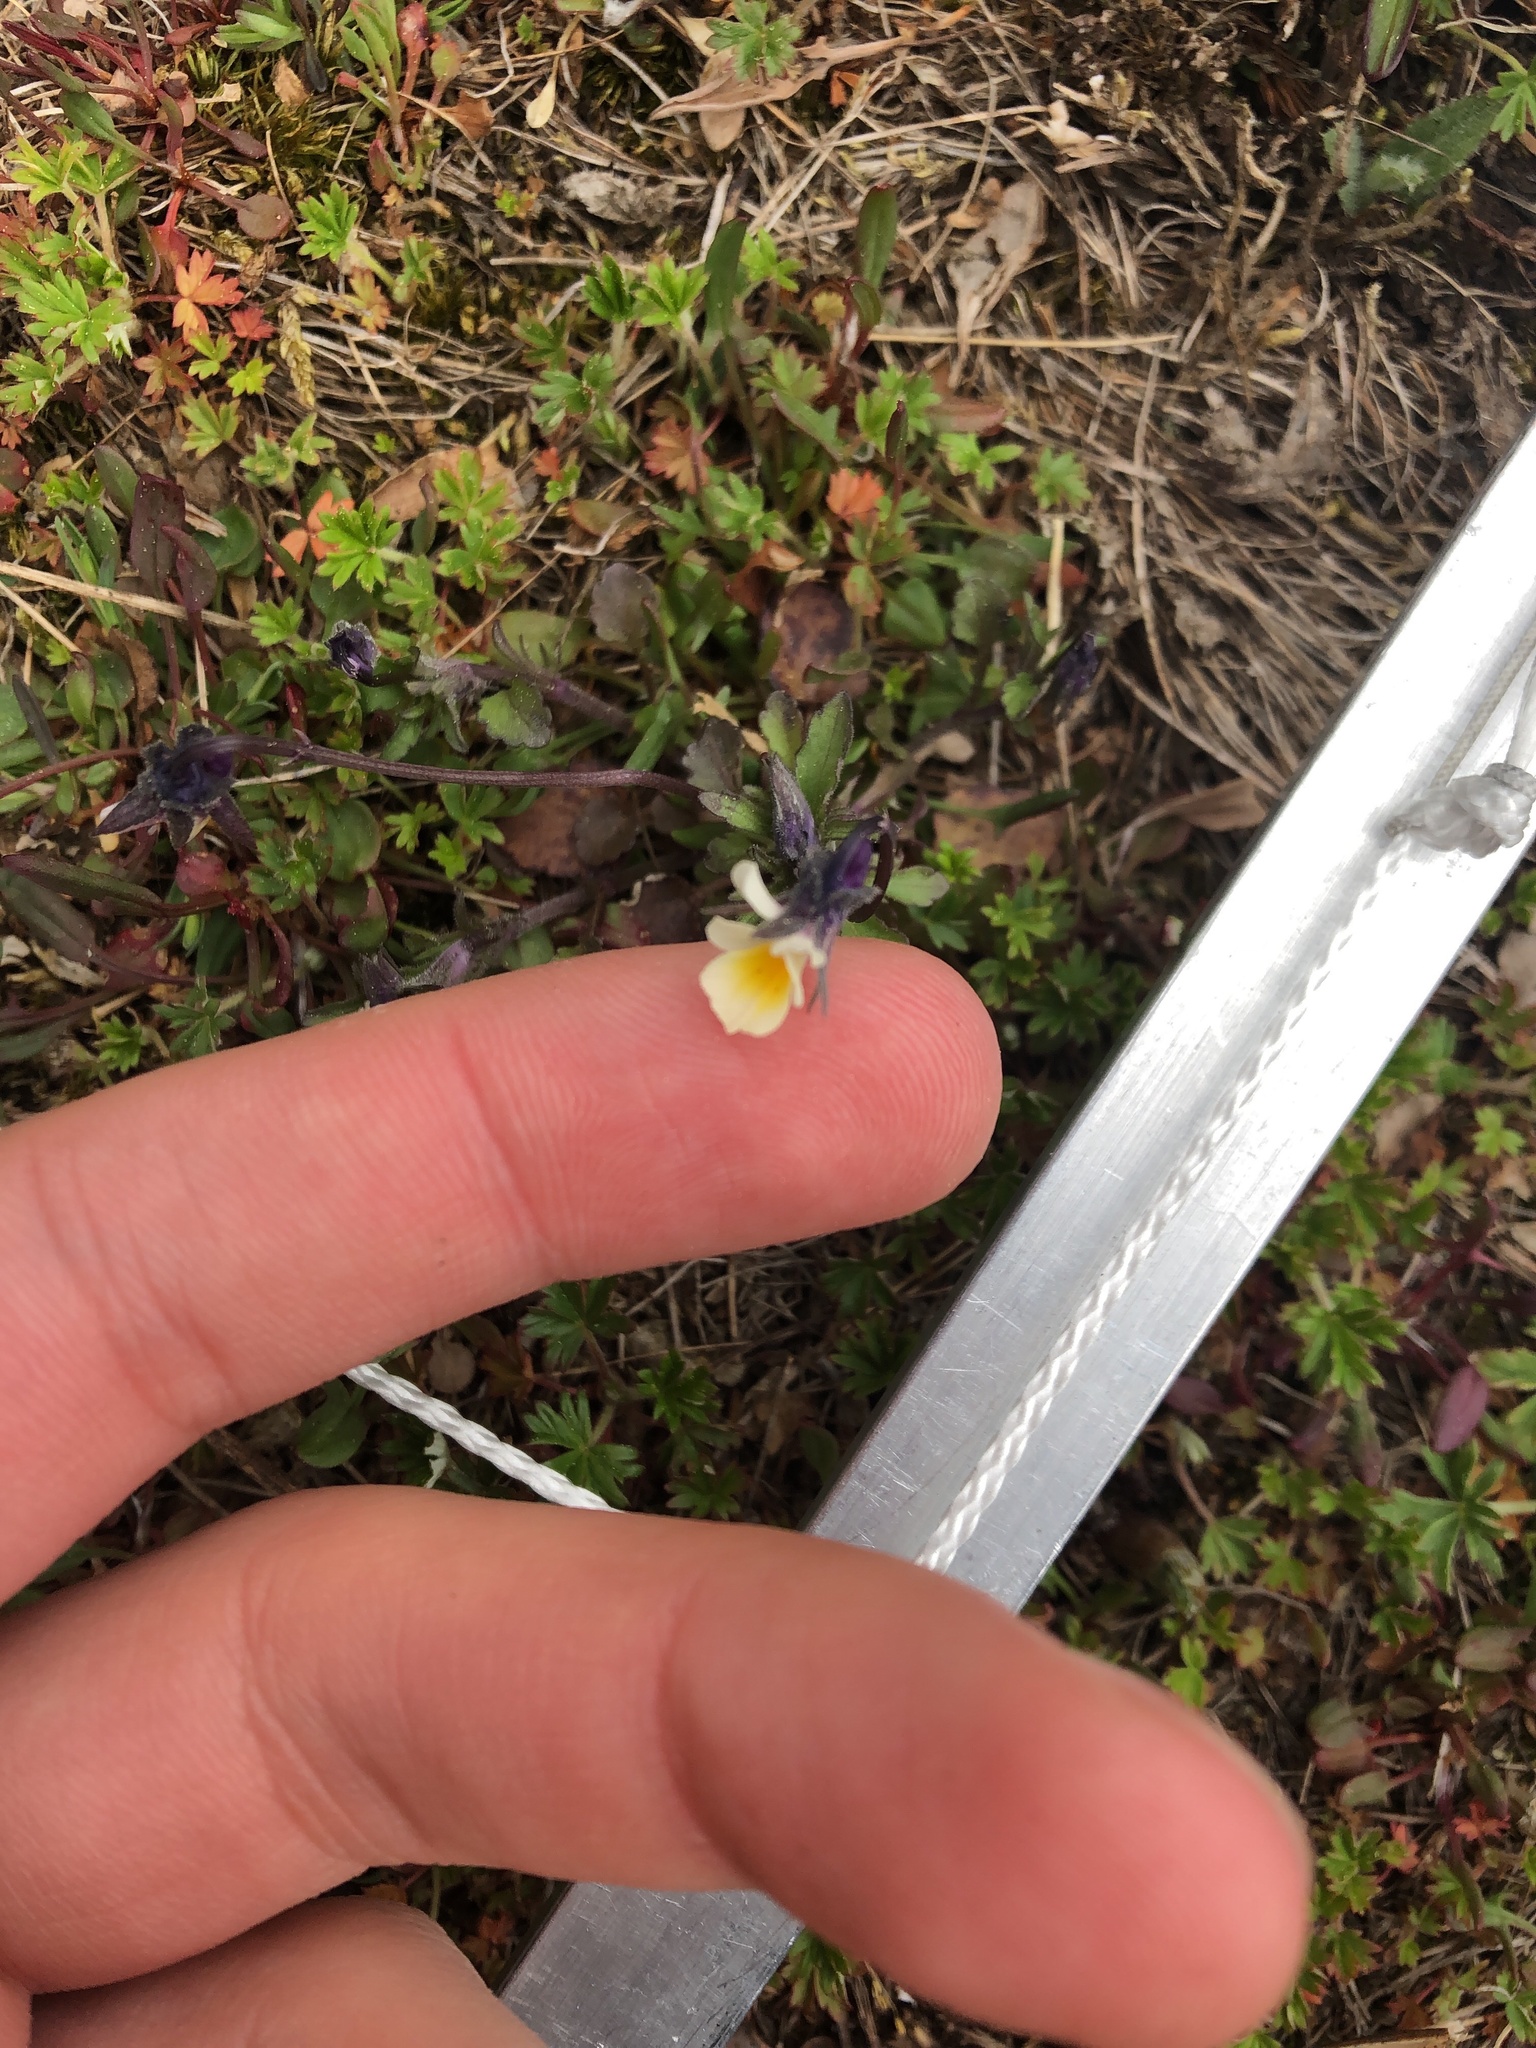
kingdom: Plantae
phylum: Tracheophyta
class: Magnoliopsida
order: Malpighiales
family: Violaceae
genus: Viola
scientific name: Viola arvensis
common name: Field pansy
